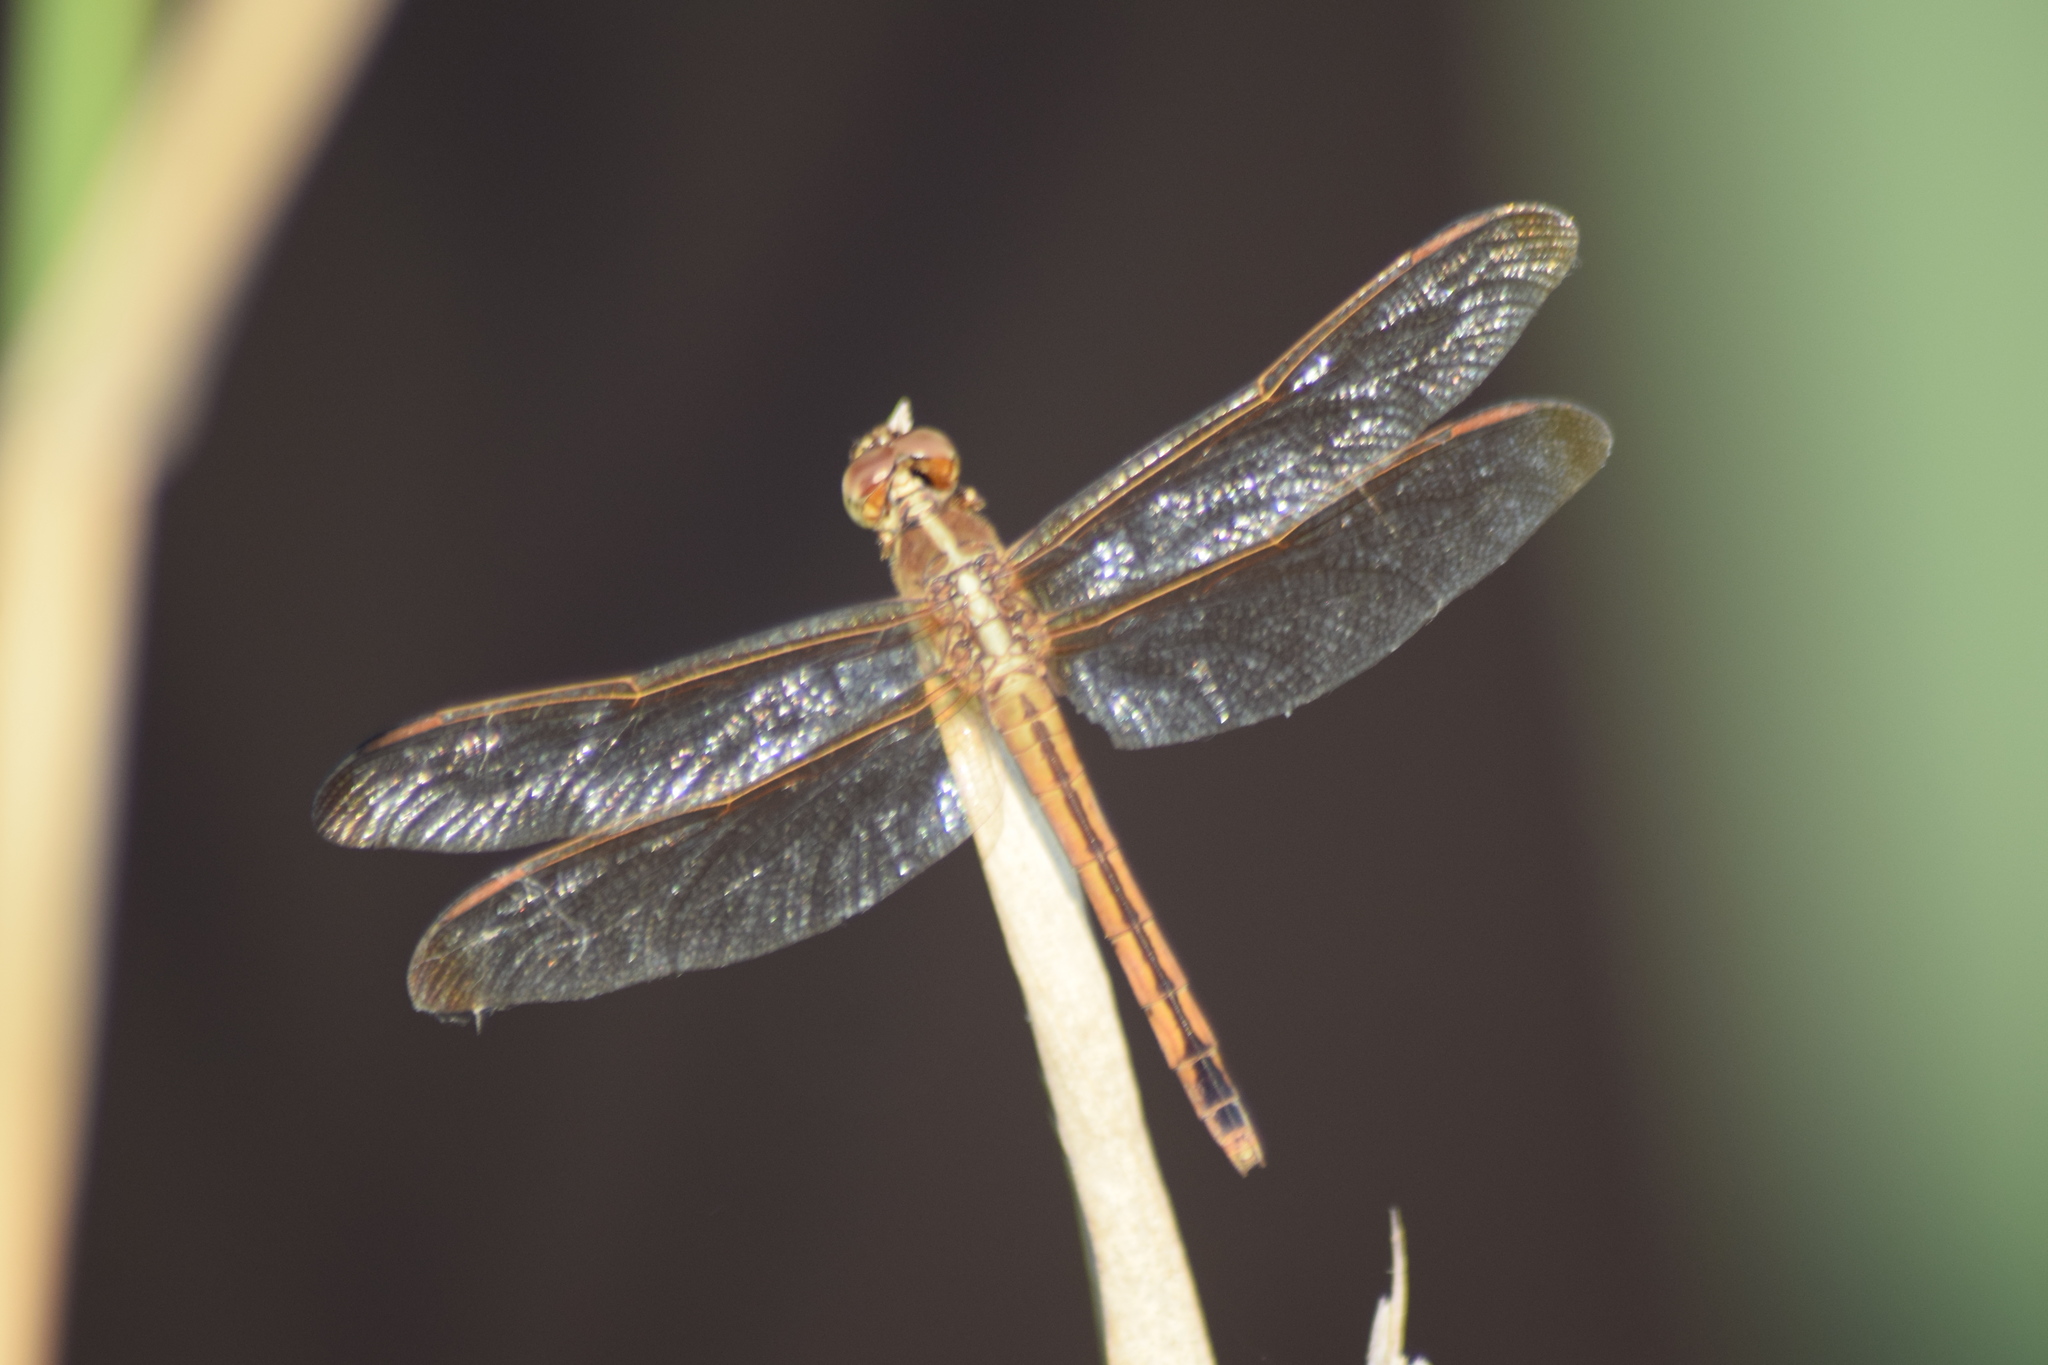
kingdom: Animalia
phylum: Arthropoda
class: Insecta
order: Odonata
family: Libellulidae
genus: Libellula
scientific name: Libellula needhami
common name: Needham's skimmer
